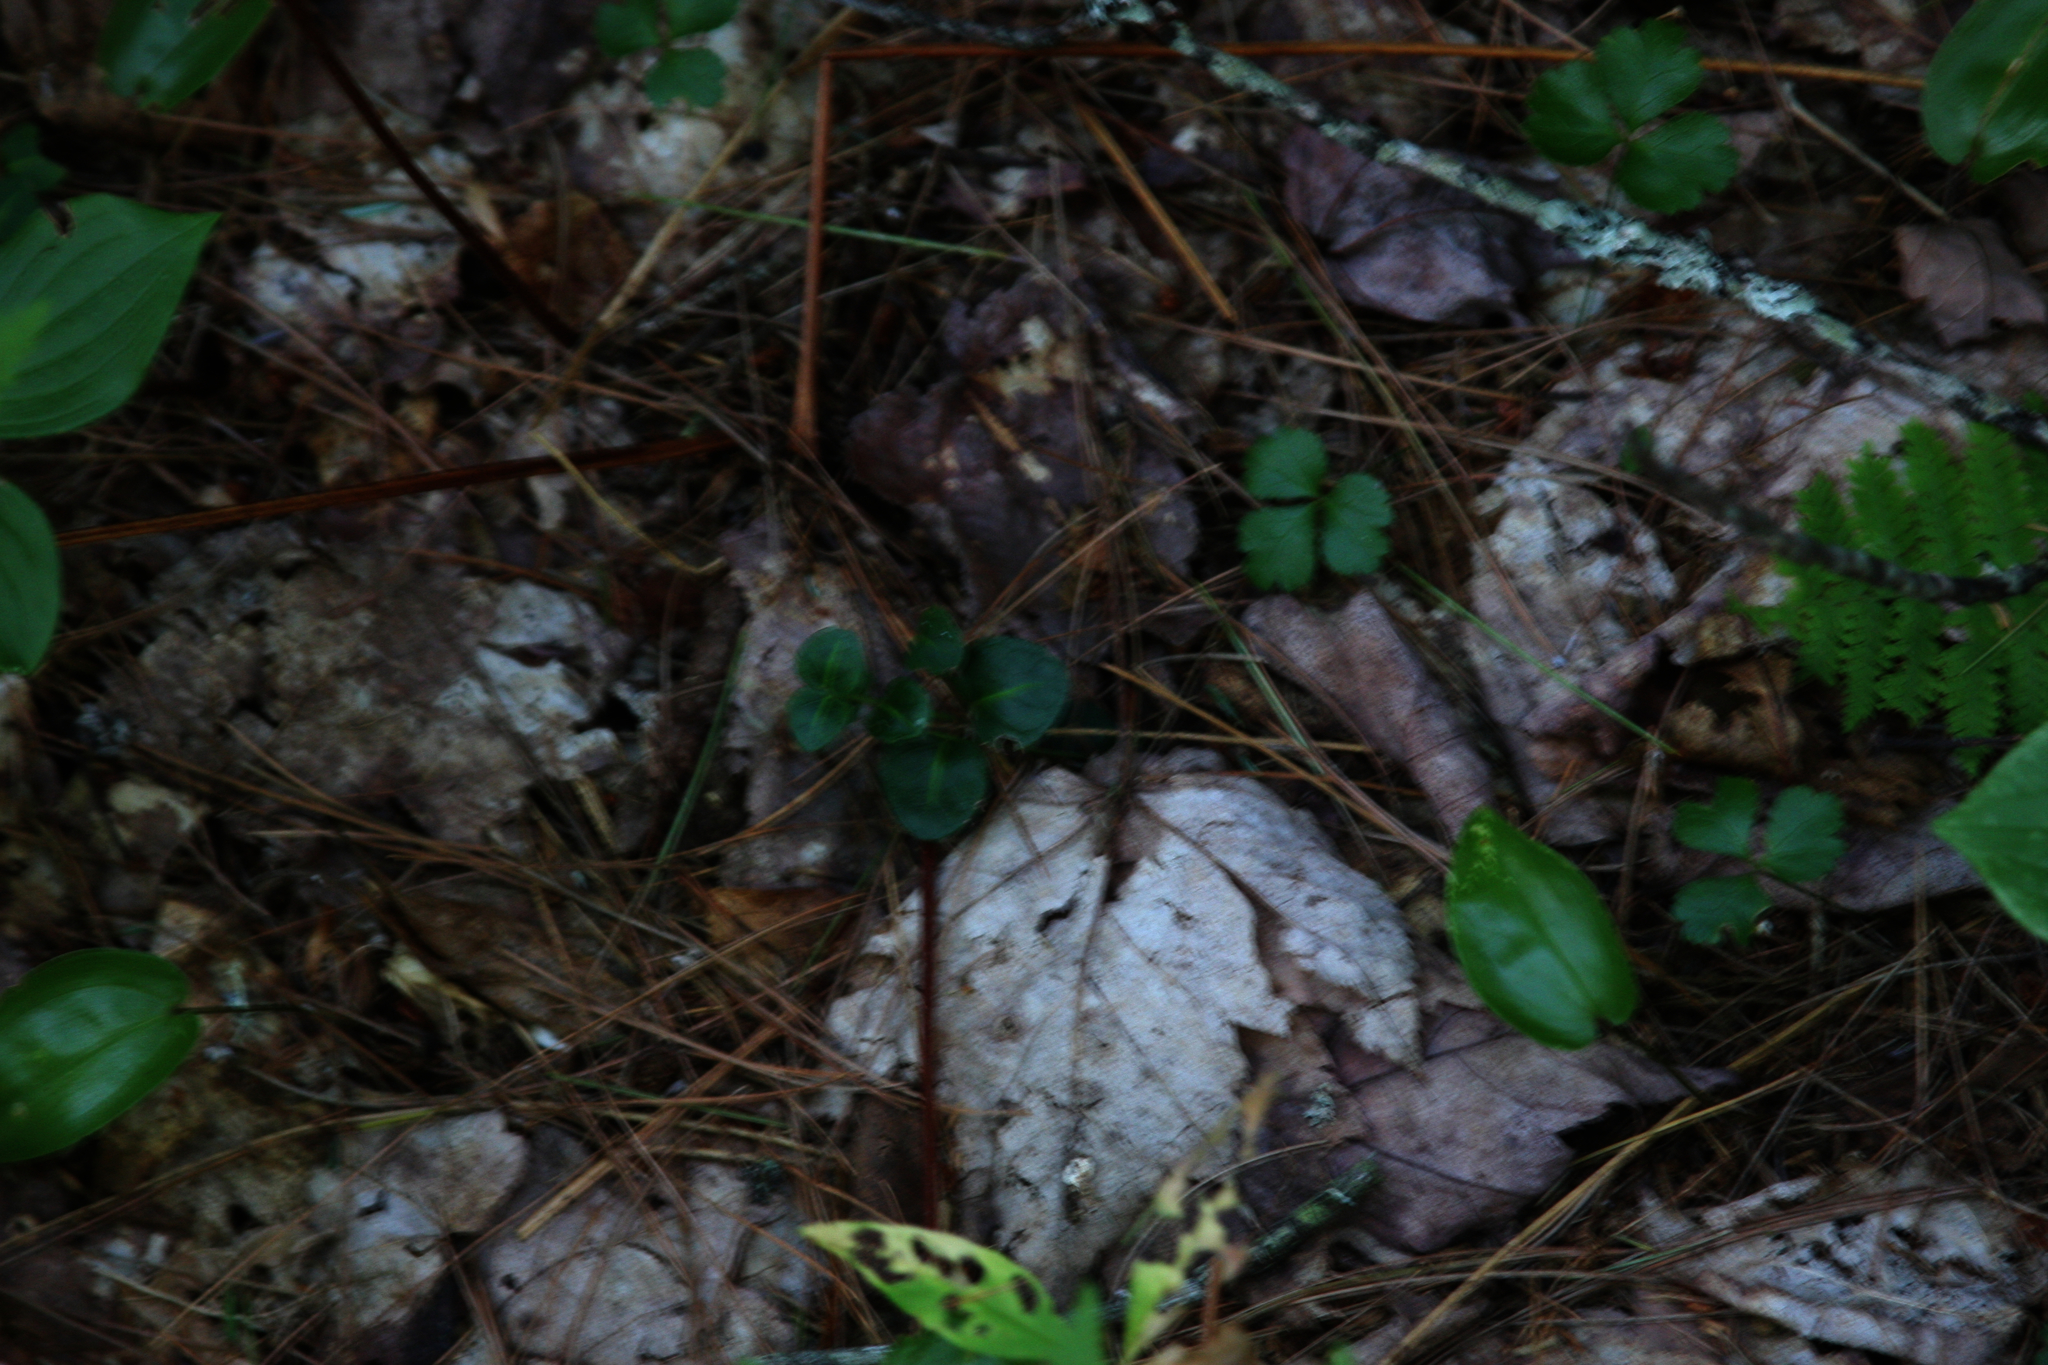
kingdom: Plantae
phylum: Tracheophyta
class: Magnoliopsida
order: Ranunculales
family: Ranunculaceae
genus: Coptis
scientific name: Coptis trifolia
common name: Canker-root
